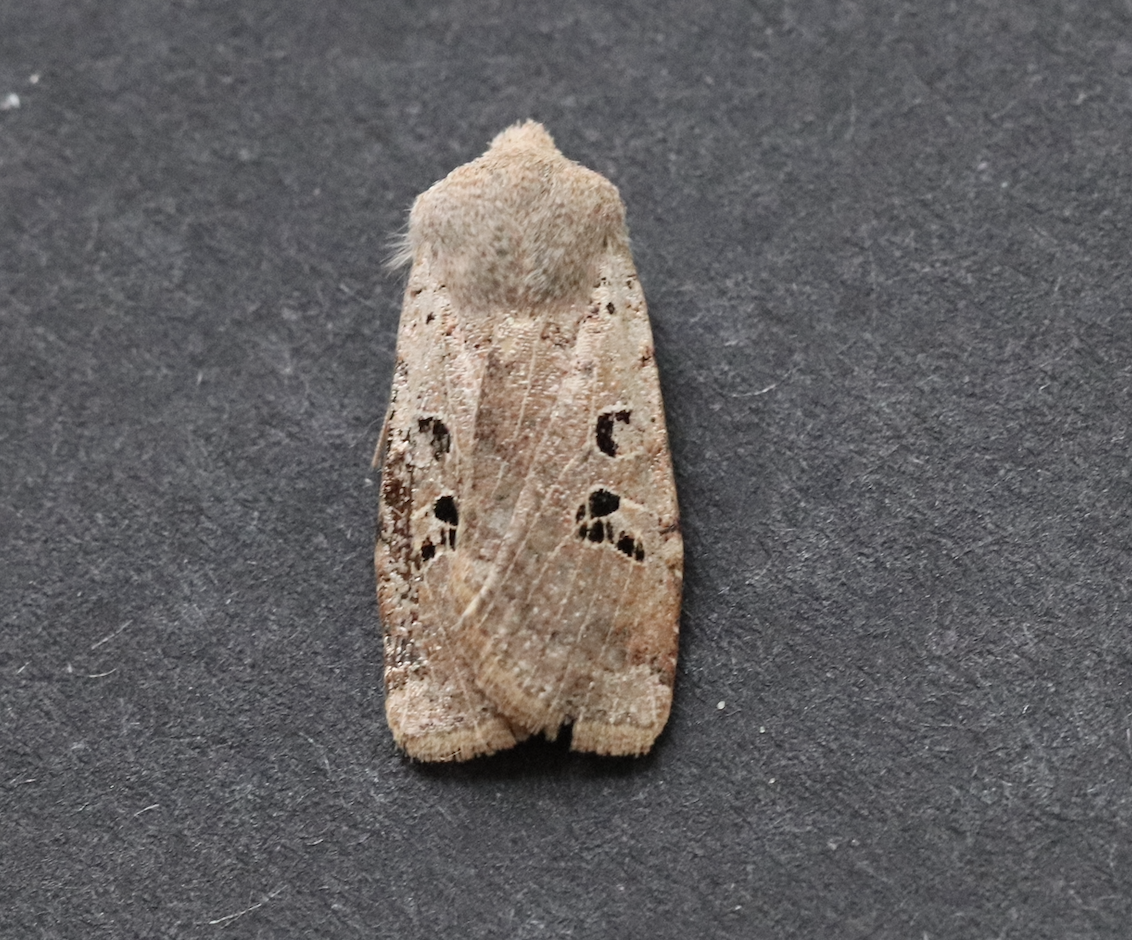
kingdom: Animalia
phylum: Arthropoda
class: Insecta
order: Lepidoptera
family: Noctuidae
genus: Conistra
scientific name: Conistra rubiginosa
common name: Black-spotted chestnut
